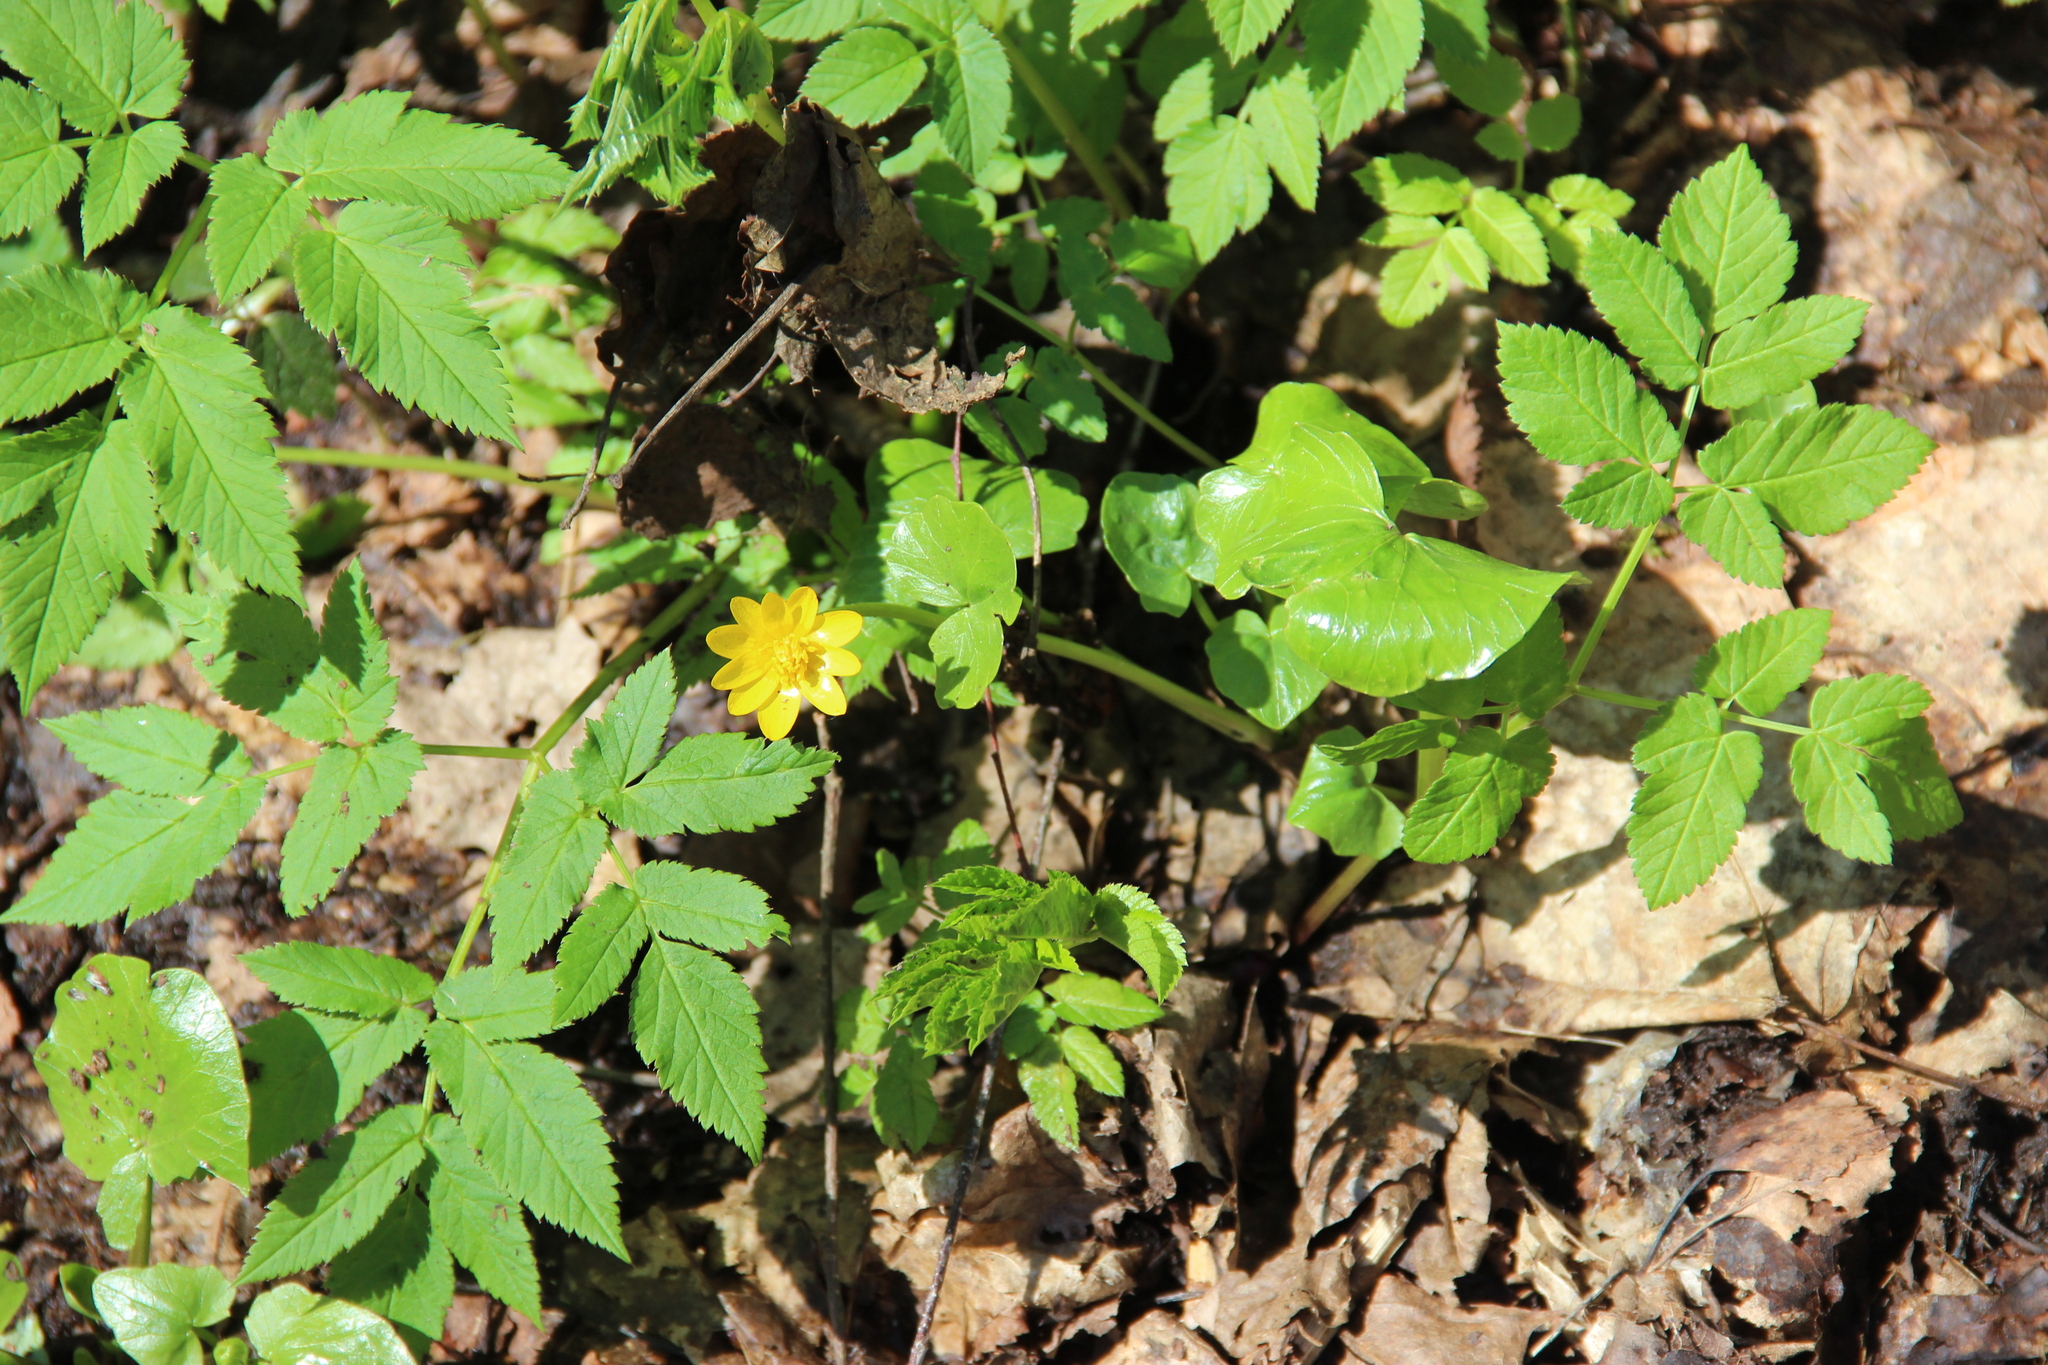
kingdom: Plantae
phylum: Tracheophyta
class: Magnoliopsida
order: Ranunculales
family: Ranunculaceae
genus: Ficaria
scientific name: Ficaria verna
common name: Lesser celandine
